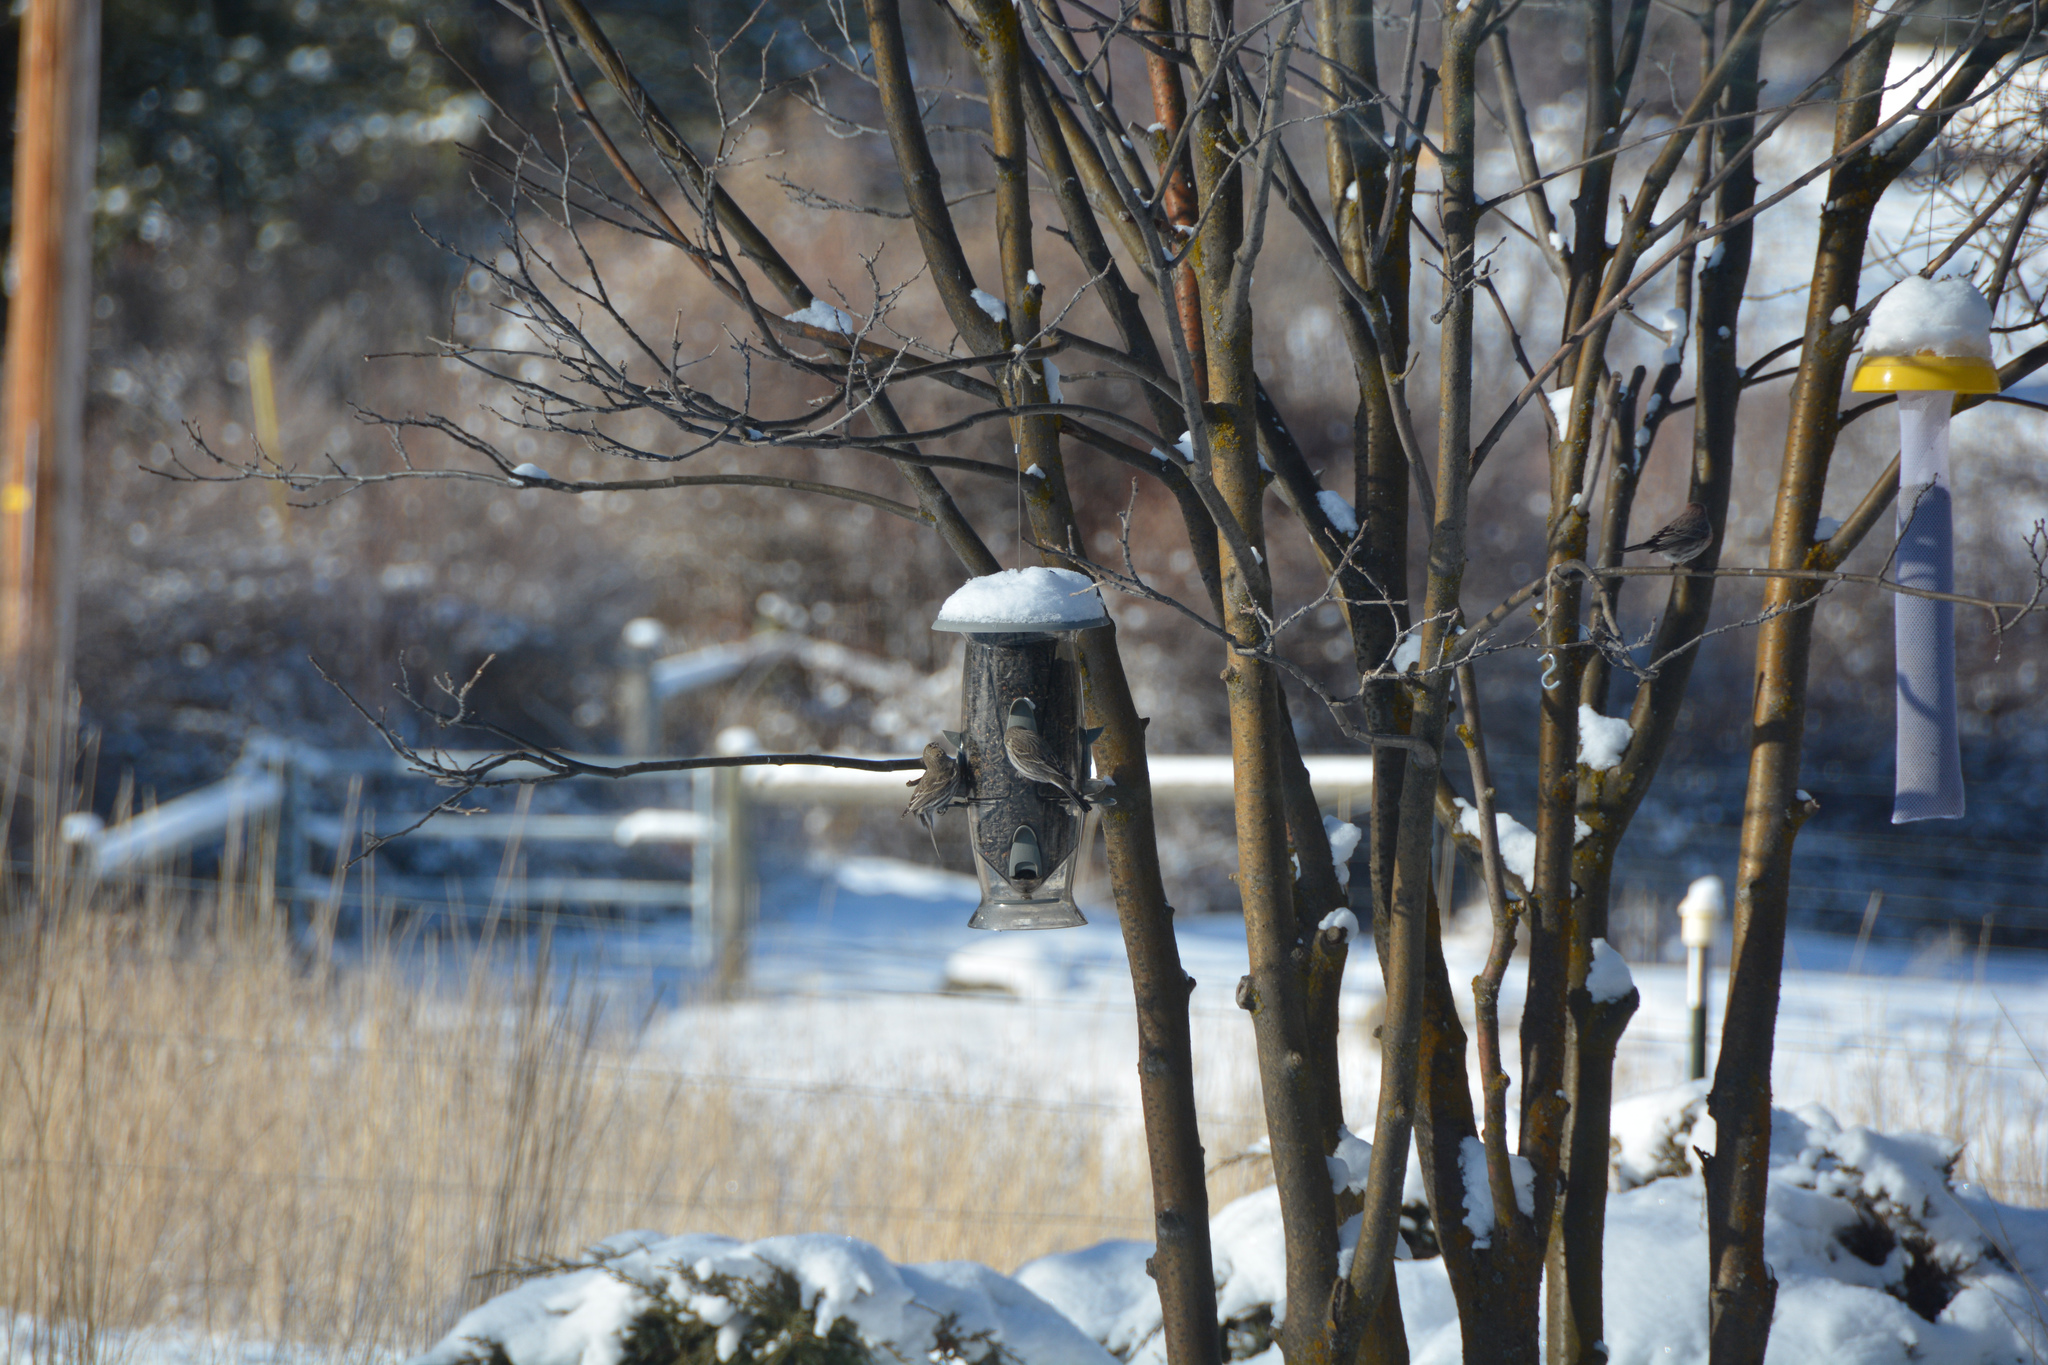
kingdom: Animalia
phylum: Chordata
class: Aves
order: Passeriformes
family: Fringillidae
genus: Haemorhous
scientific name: Haemorhous mexicanus
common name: House finch
